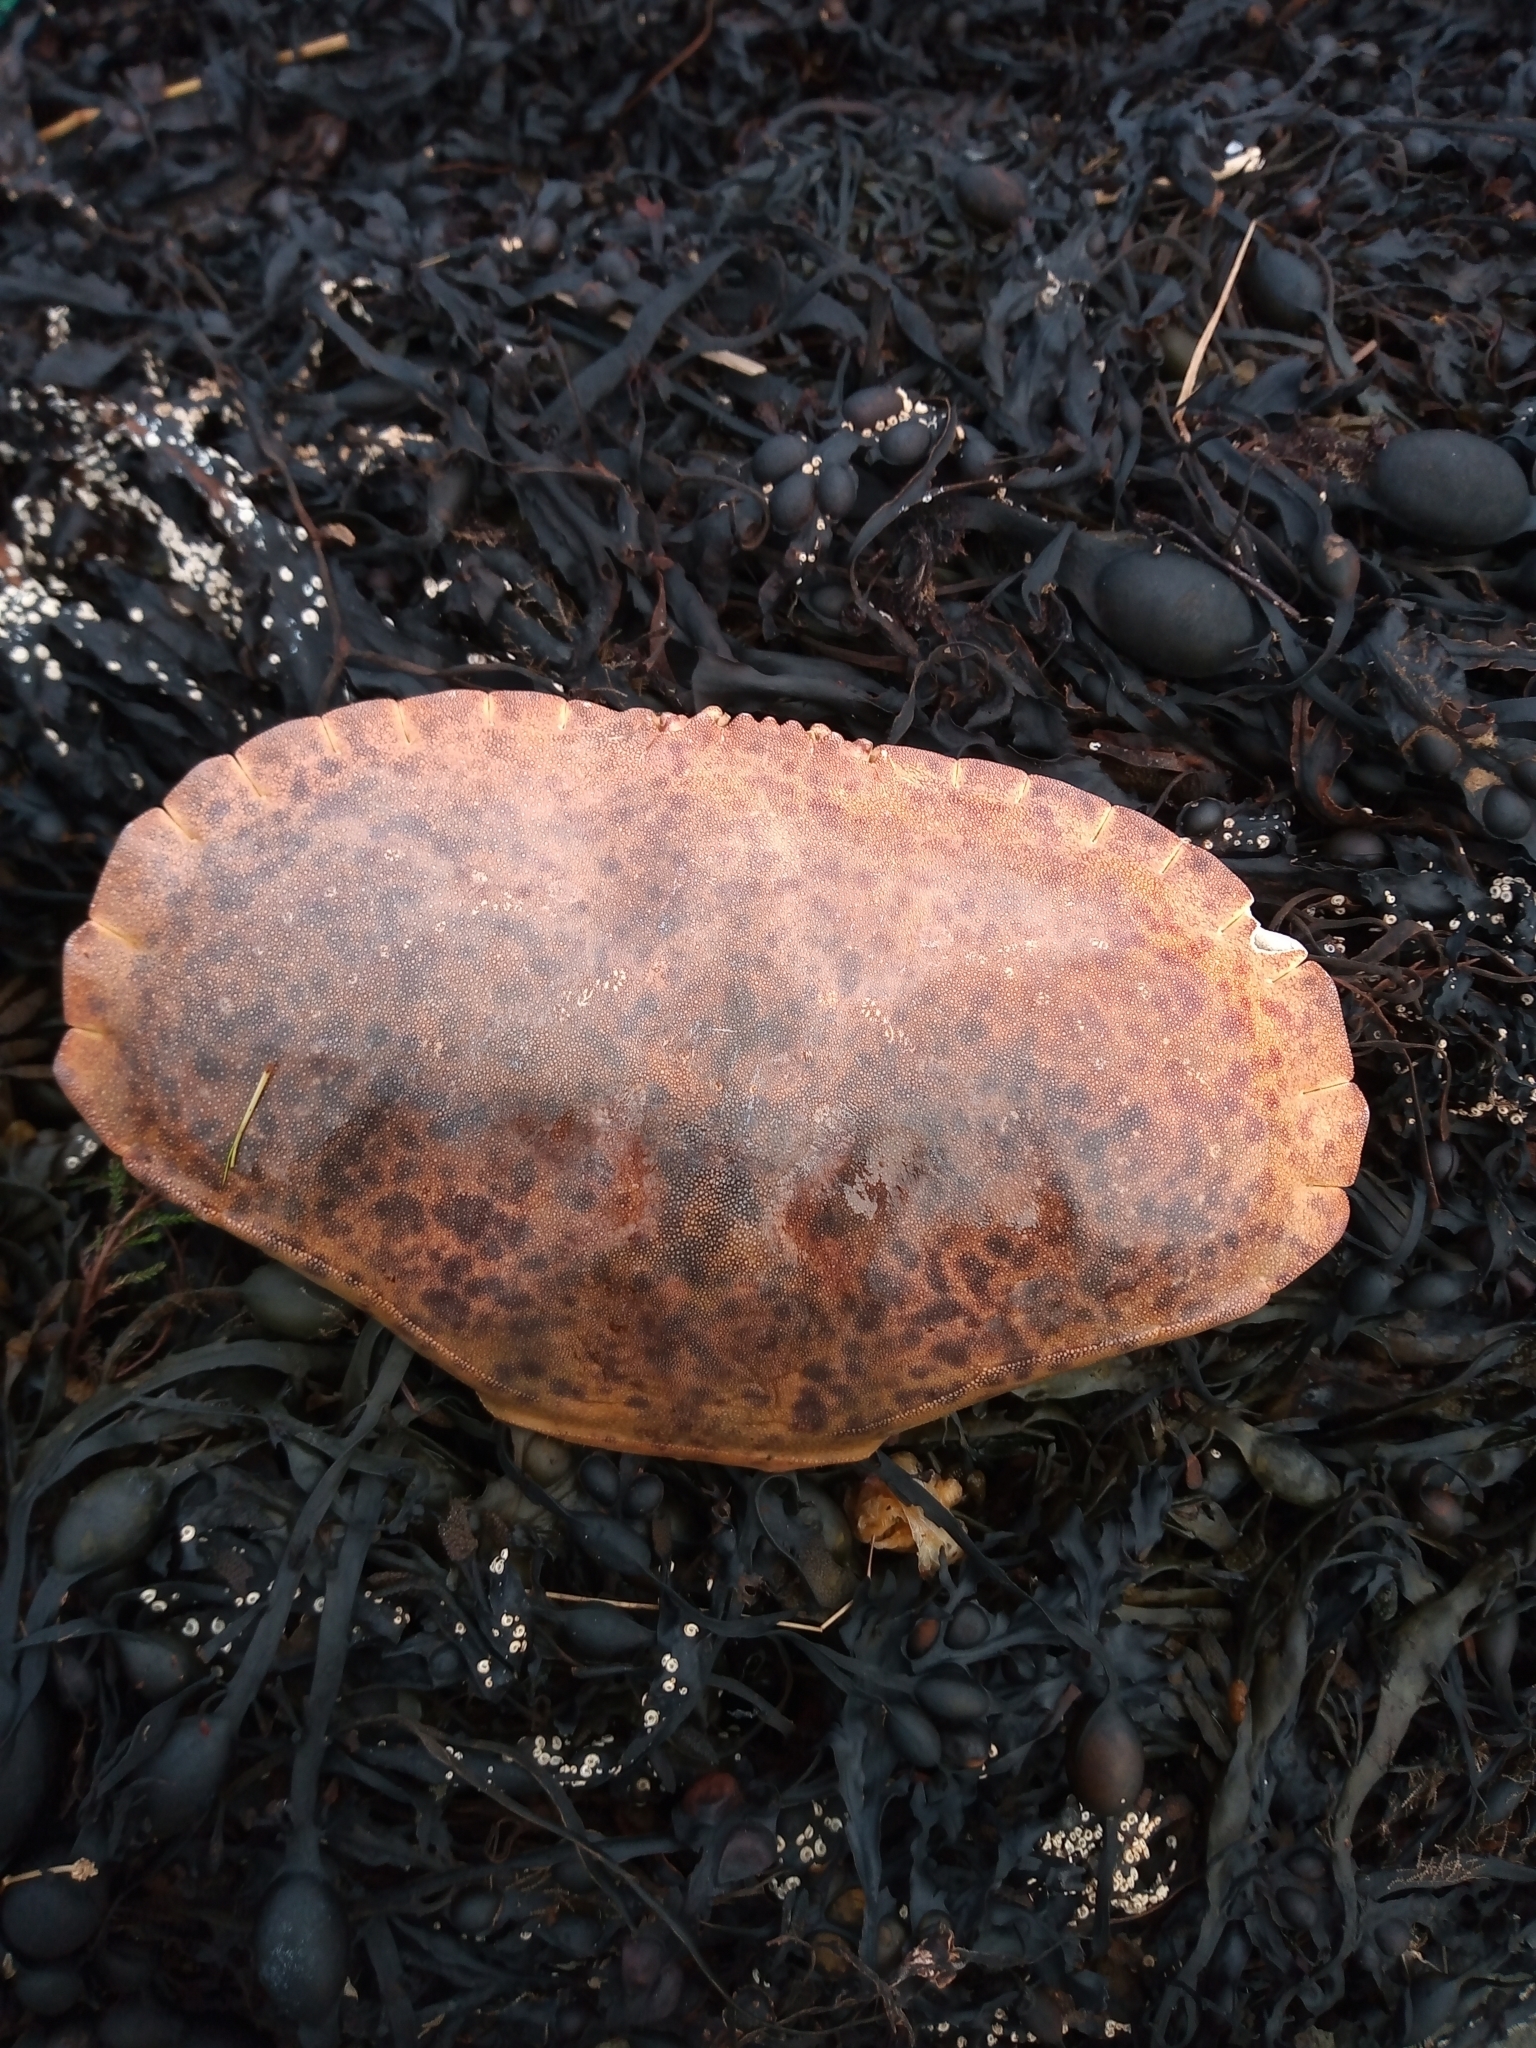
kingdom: Animalia
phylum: Arthropoda
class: Malacostraca
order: Decapoda
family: Cancridae
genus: Cancer
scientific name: Cancer pagurus
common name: Edible crab
